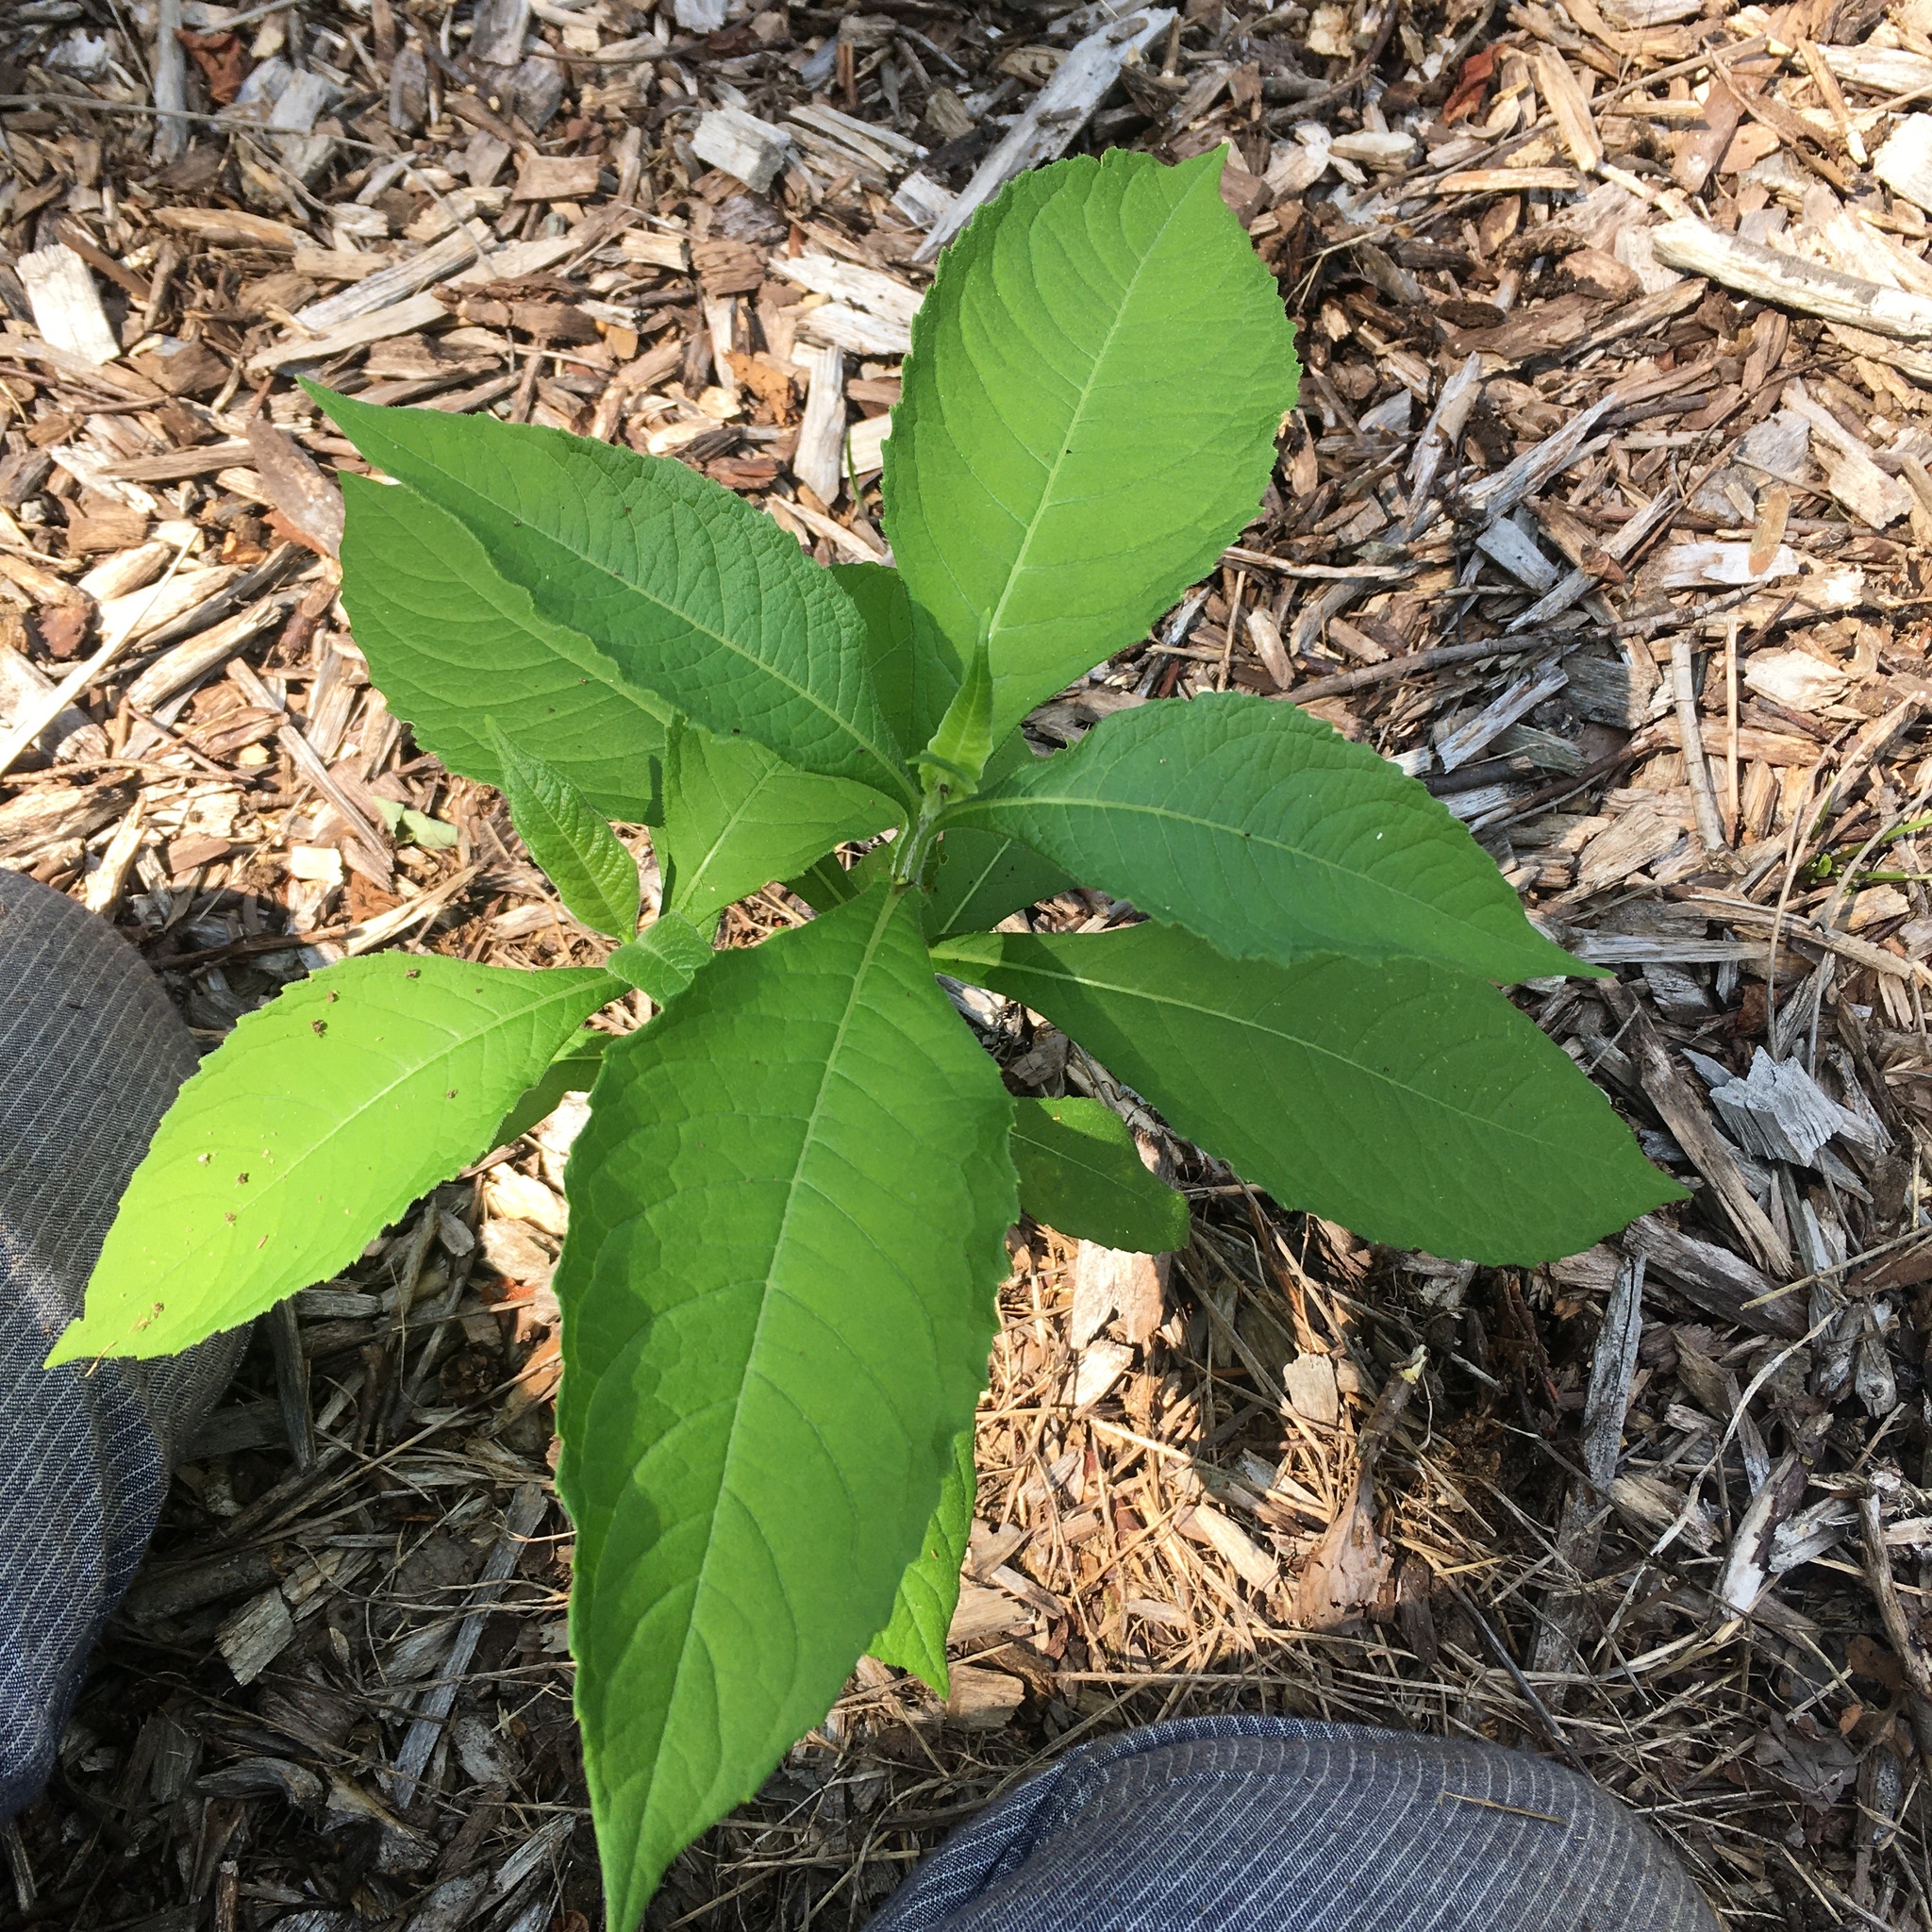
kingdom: Plantae
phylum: Tracheophyta
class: Magnoliopsida
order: Asterales
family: Asteraceae
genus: Verbesina
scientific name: Verbesina alternifolia
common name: Wingstem
